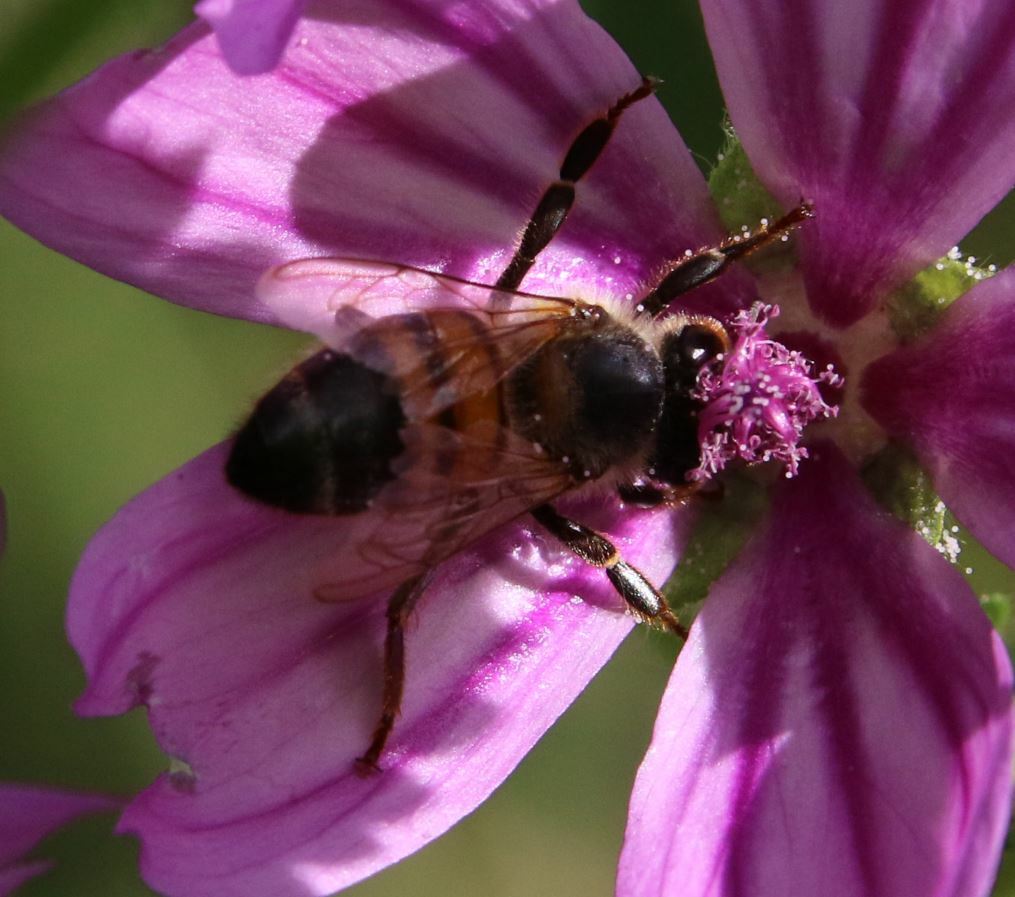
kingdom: Animalia
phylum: Arthropoda
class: Insecta
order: Hymenoptera
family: Apidae
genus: Apis
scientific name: Apis mellifera
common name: Honey bee
